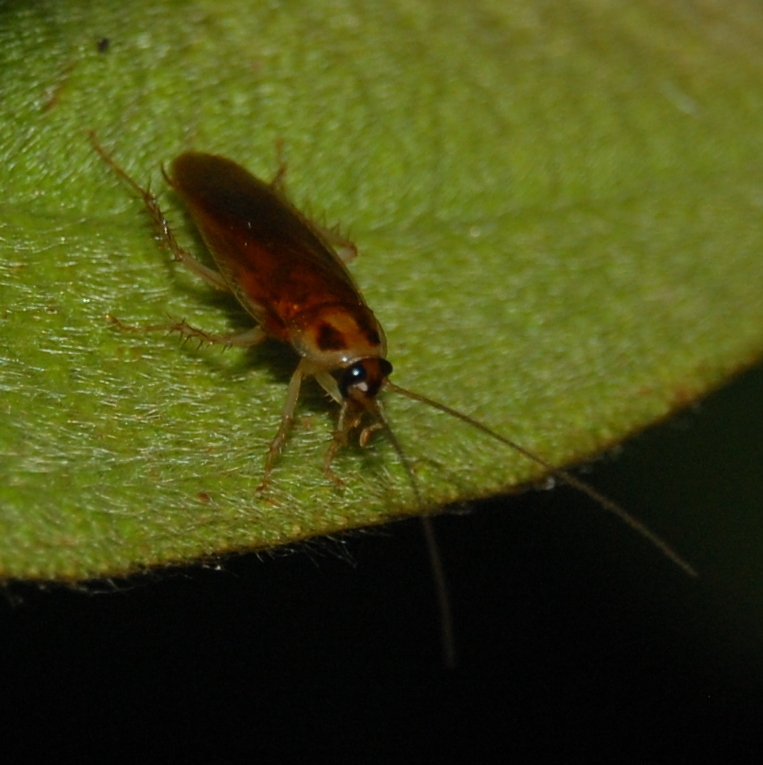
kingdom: Animalia
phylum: Arthropoda
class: Insecta
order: Blattodea
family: Ectobiidae
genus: Ischnoptera
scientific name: Ischnoptera bilunata
